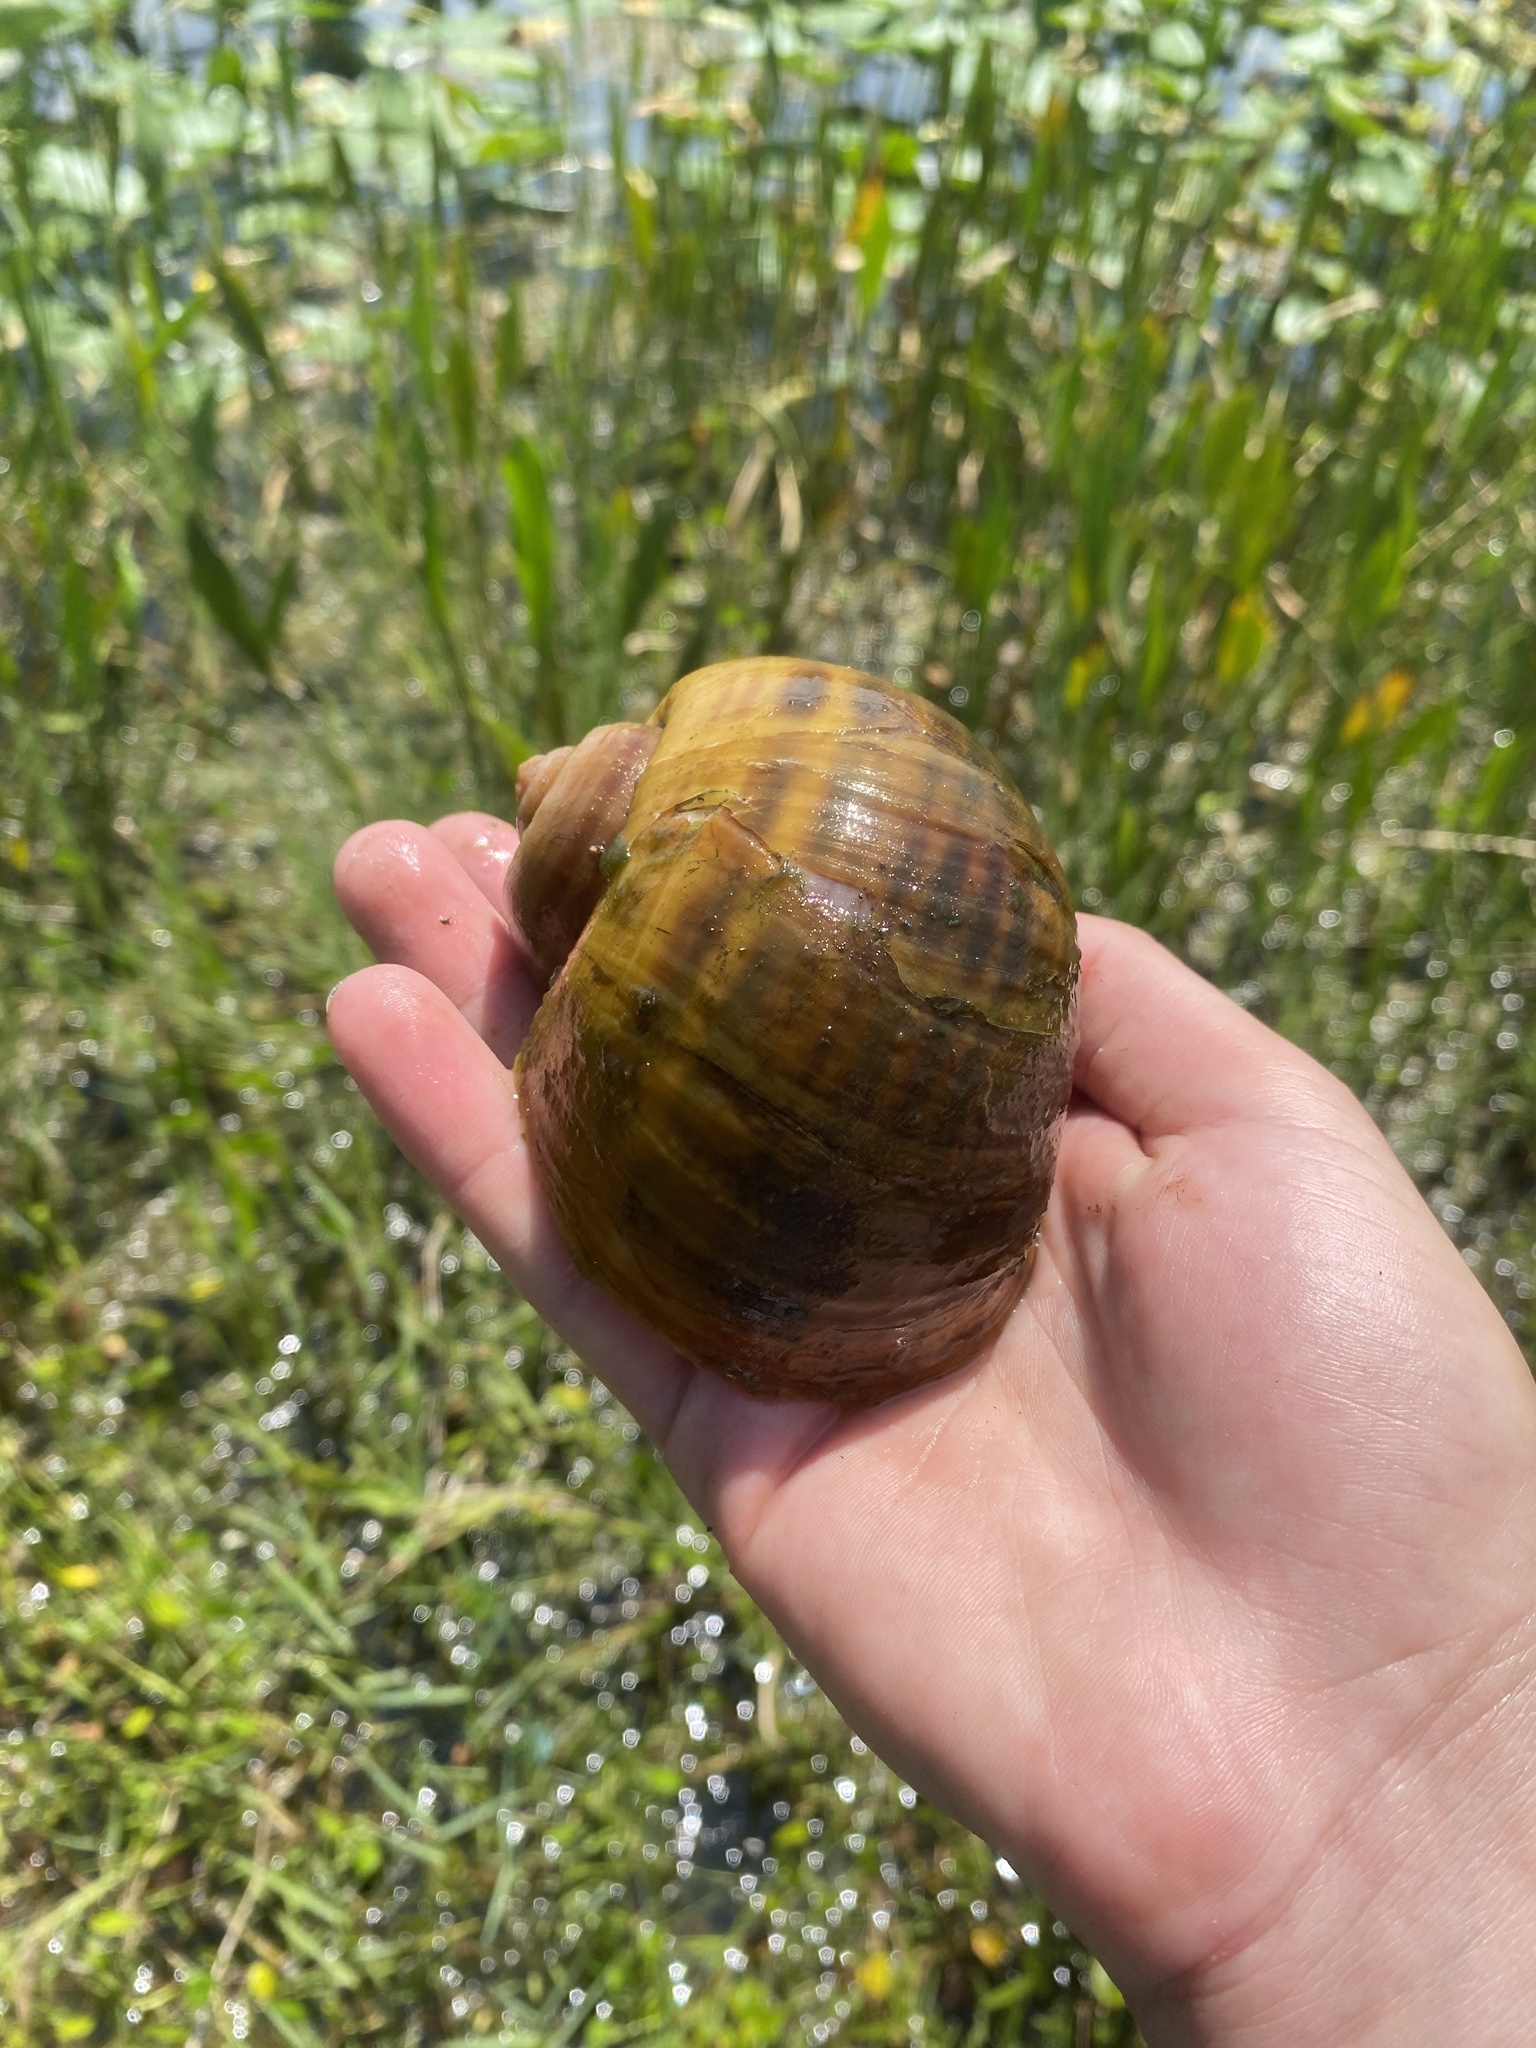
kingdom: Animalia
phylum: Mollusca
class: Gastropoda
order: Architaenioglossa
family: Ampullariidae
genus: Pomacea
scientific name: Pomacea maculata
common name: Giant applesnail
